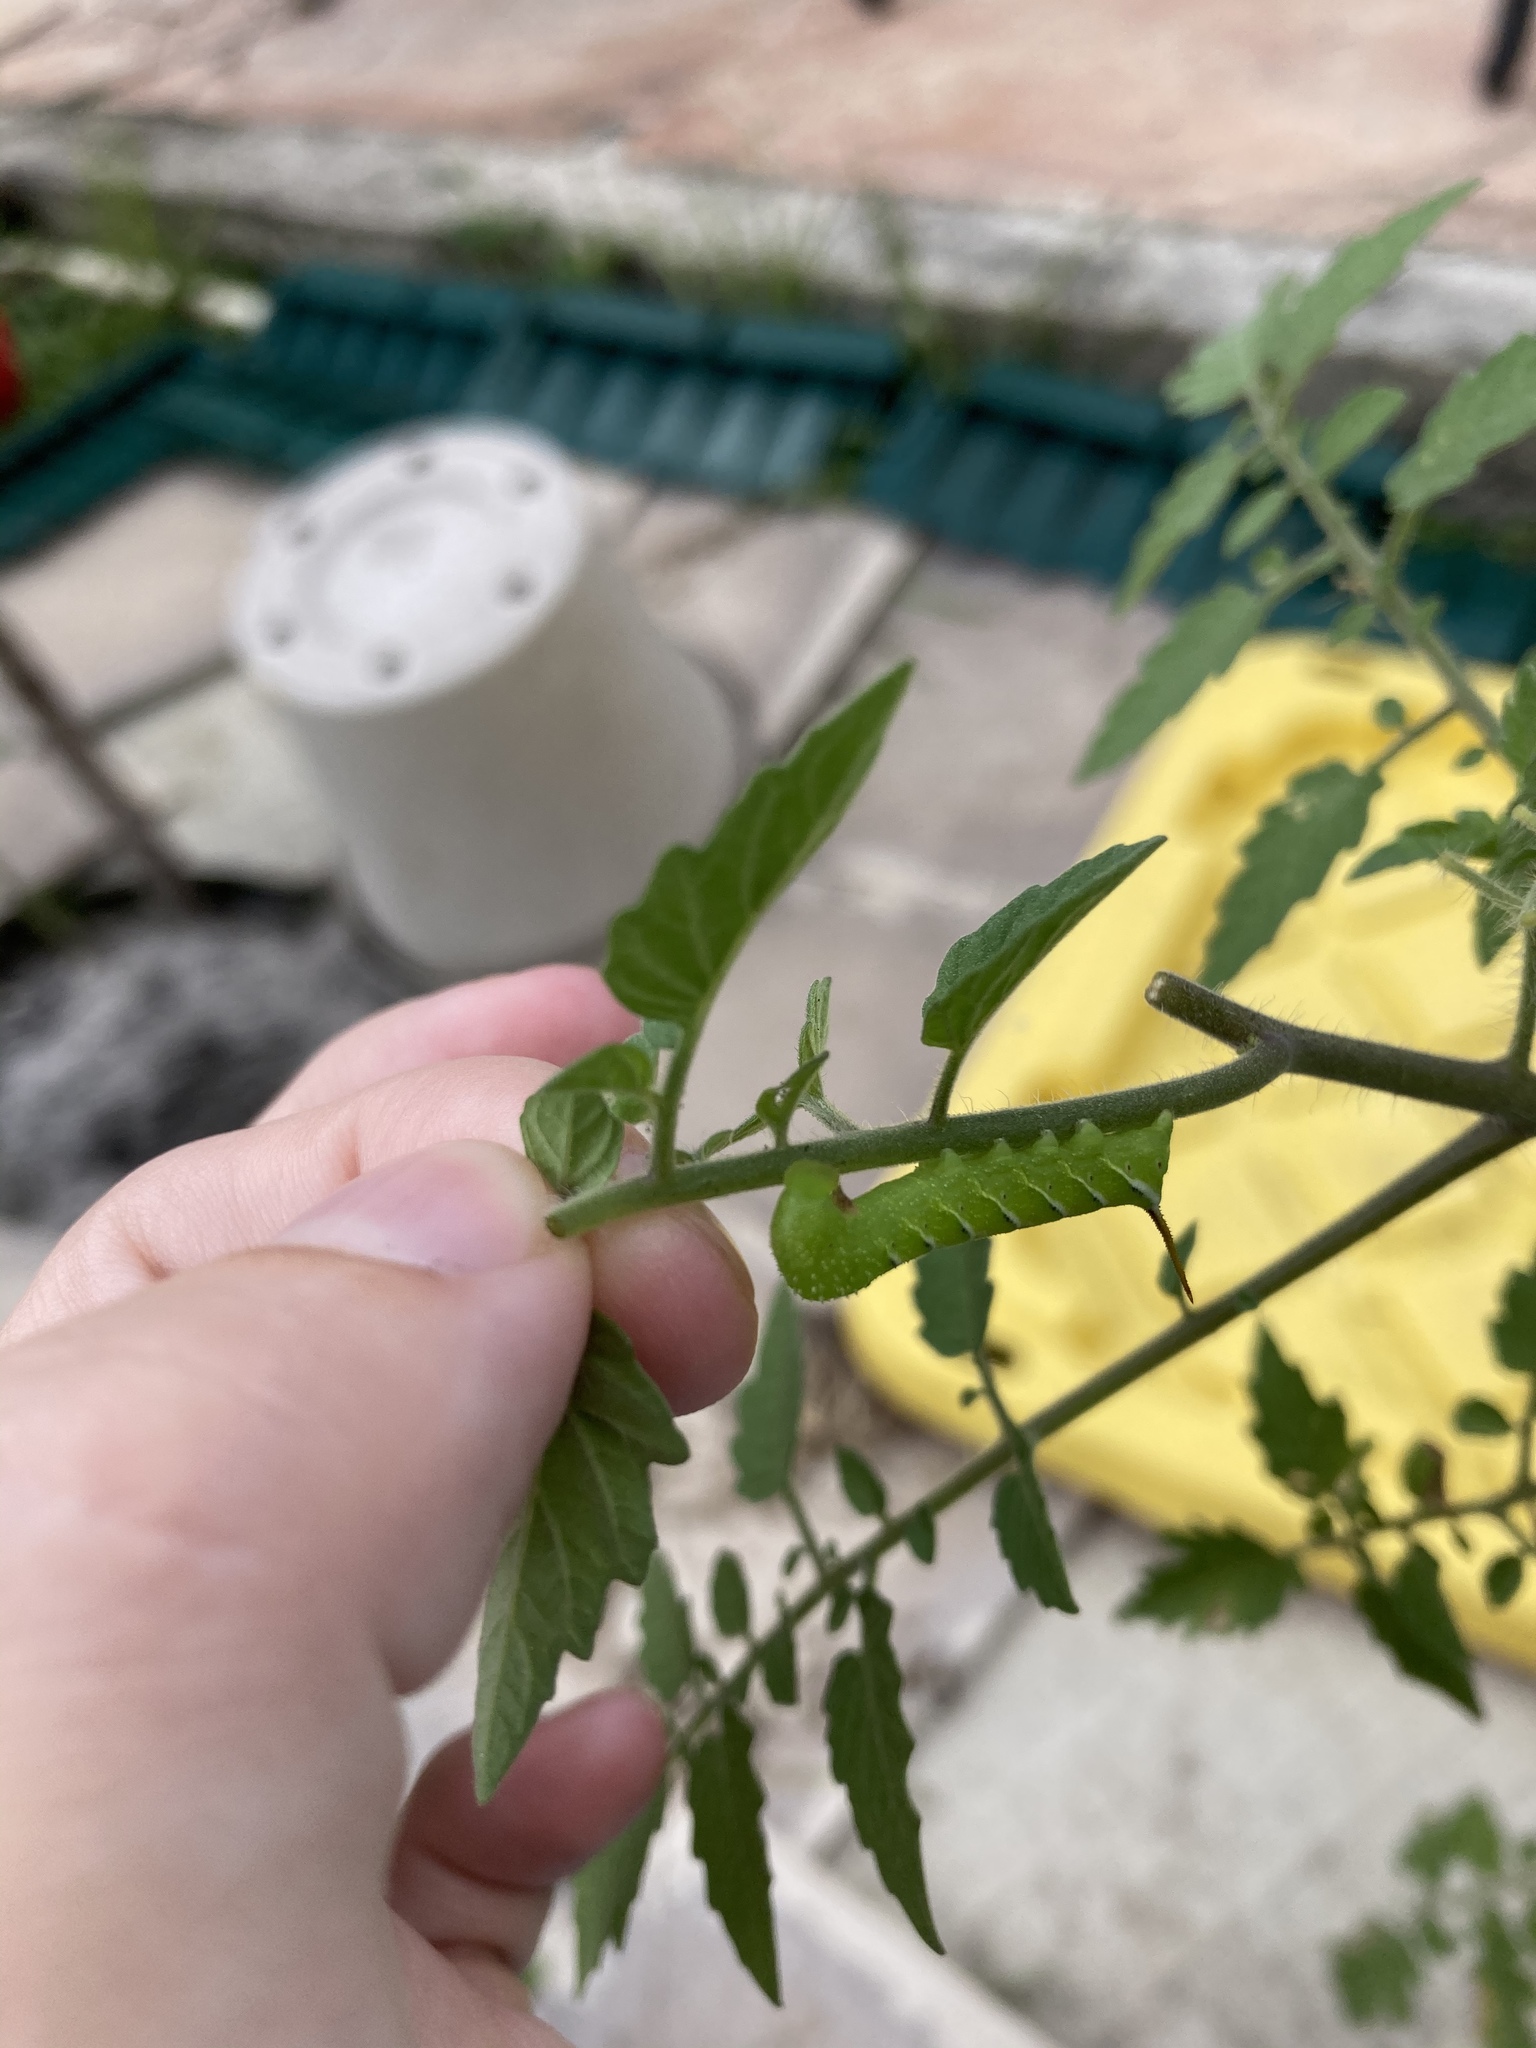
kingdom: Animalia
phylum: Arthropoda
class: Insecta
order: Lepidoptera
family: Sphingidae
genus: Manduca
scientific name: Manduca sexta
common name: Carolina sphinx
